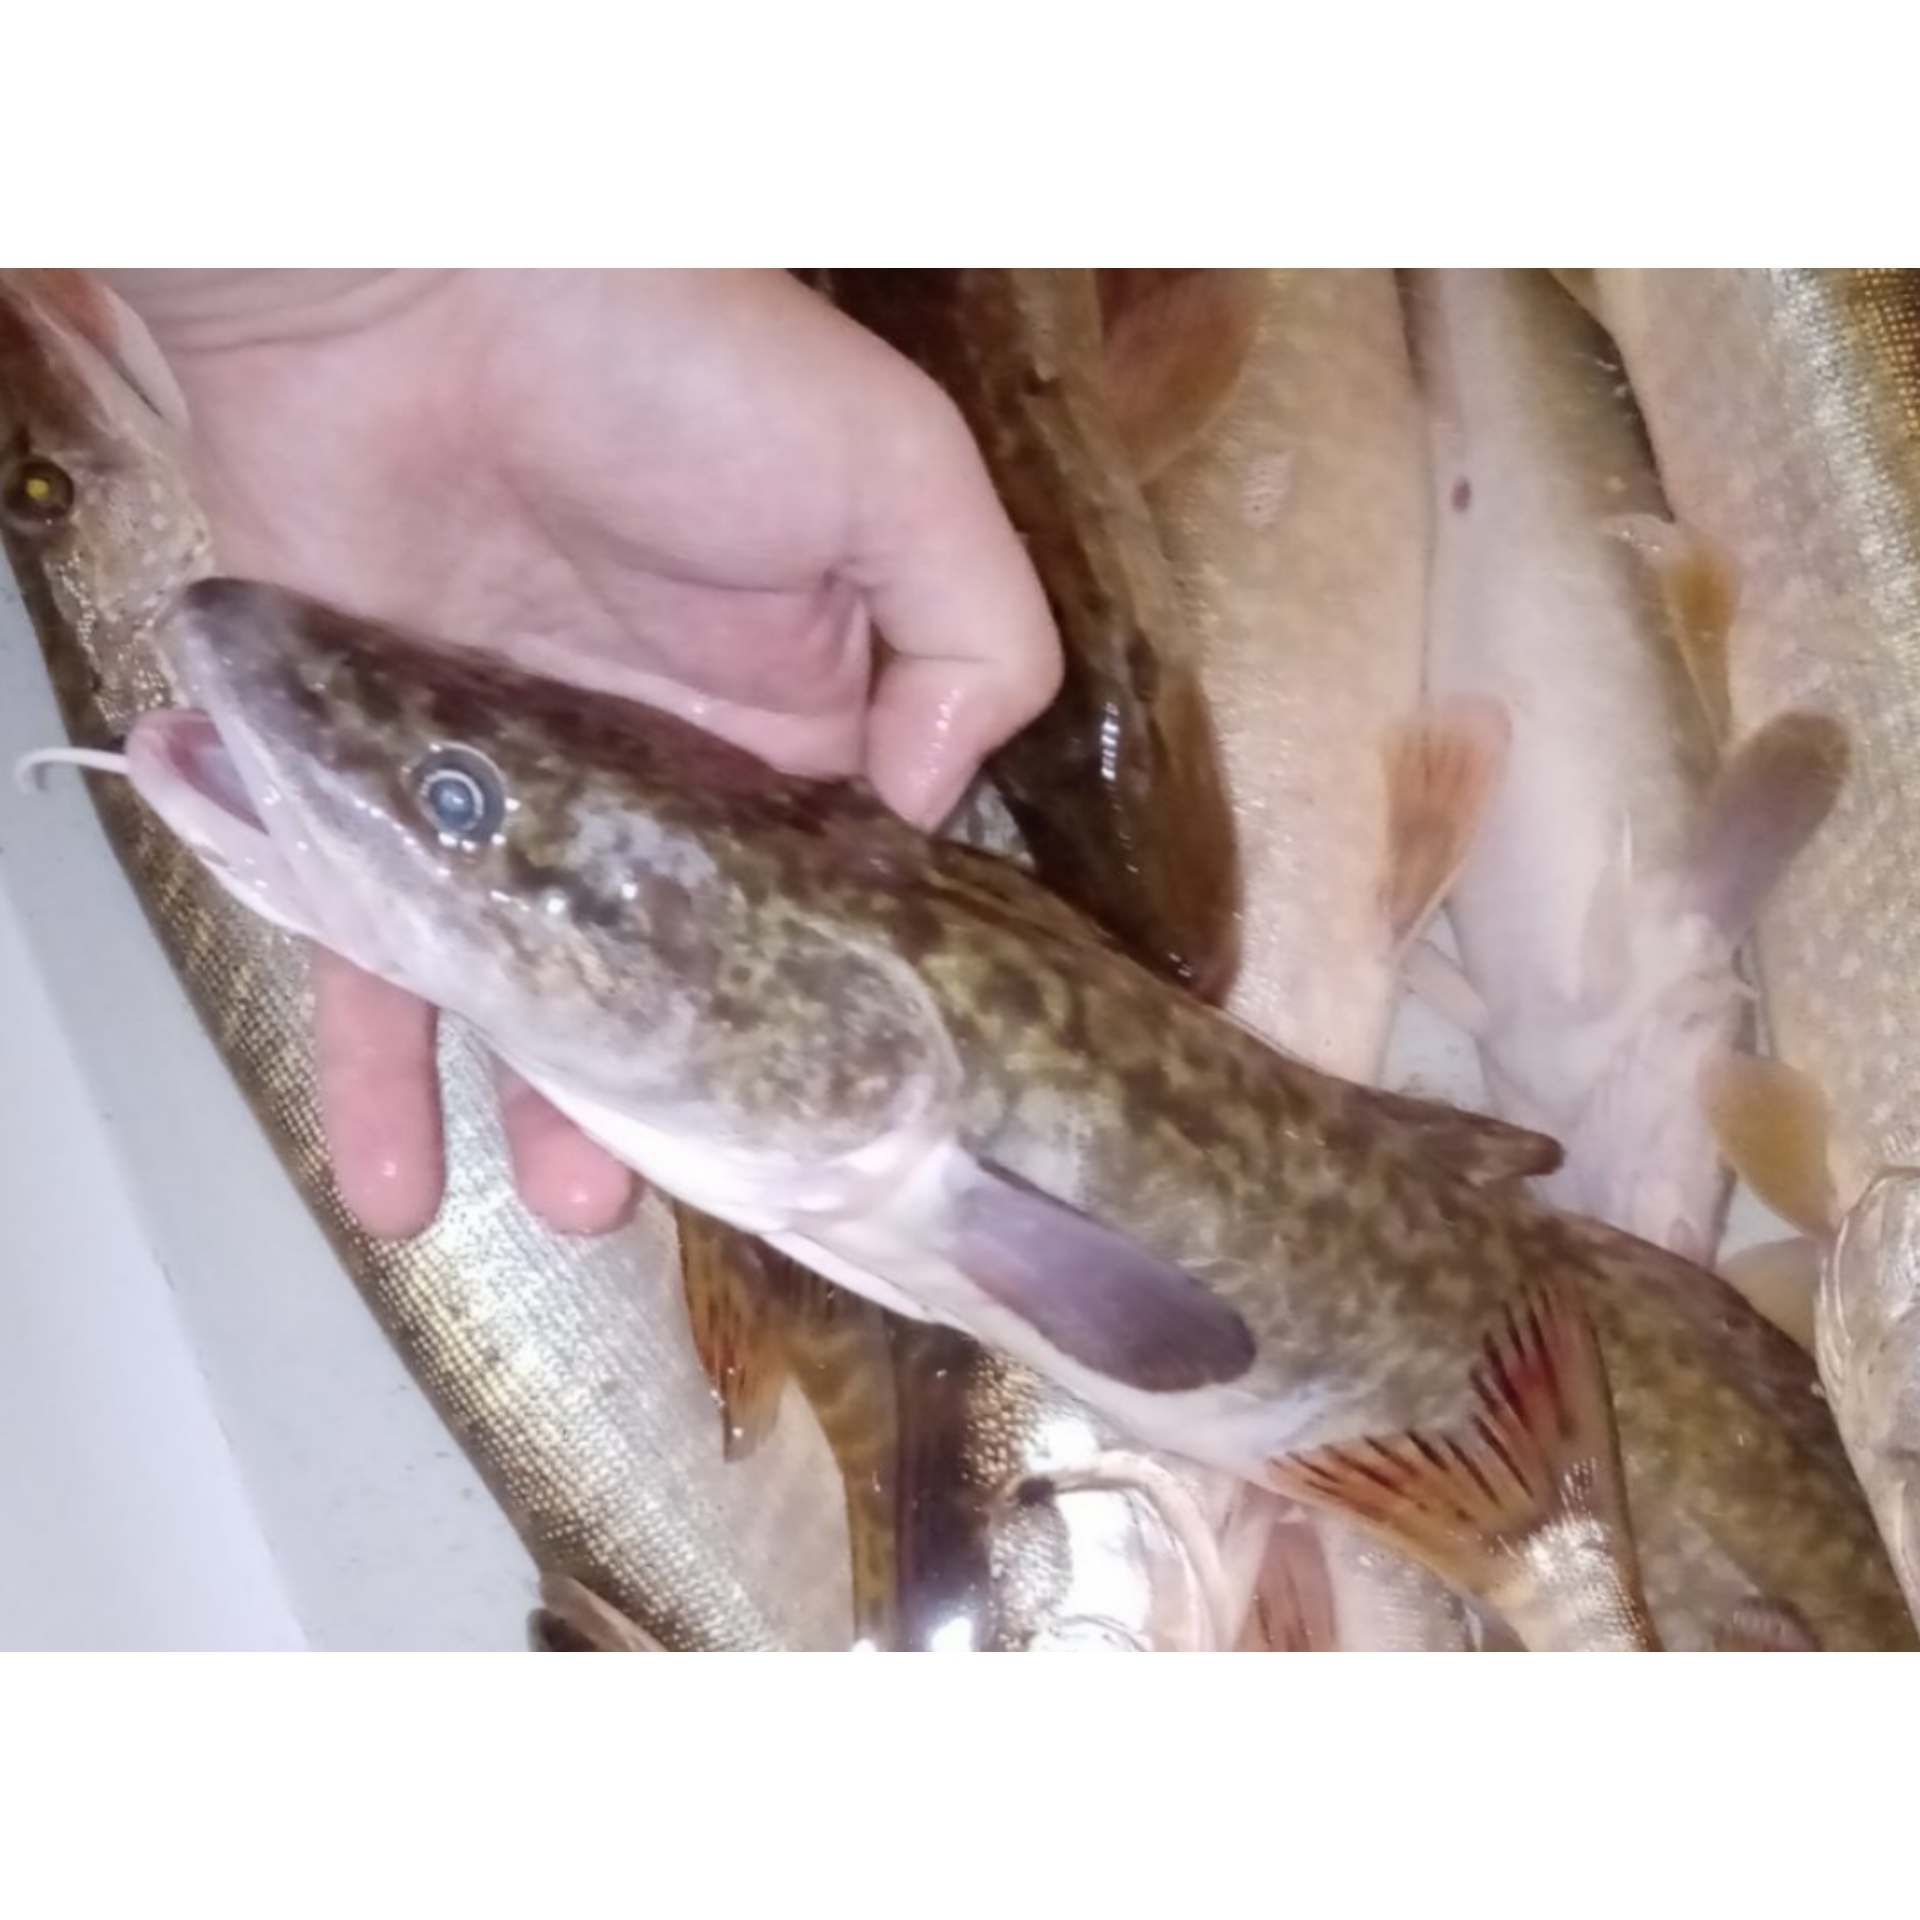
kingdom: Animalia
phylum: Chordata
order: Gadiformes
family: Lotidae
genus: Lota
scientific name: Lota lota
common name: Burbot
